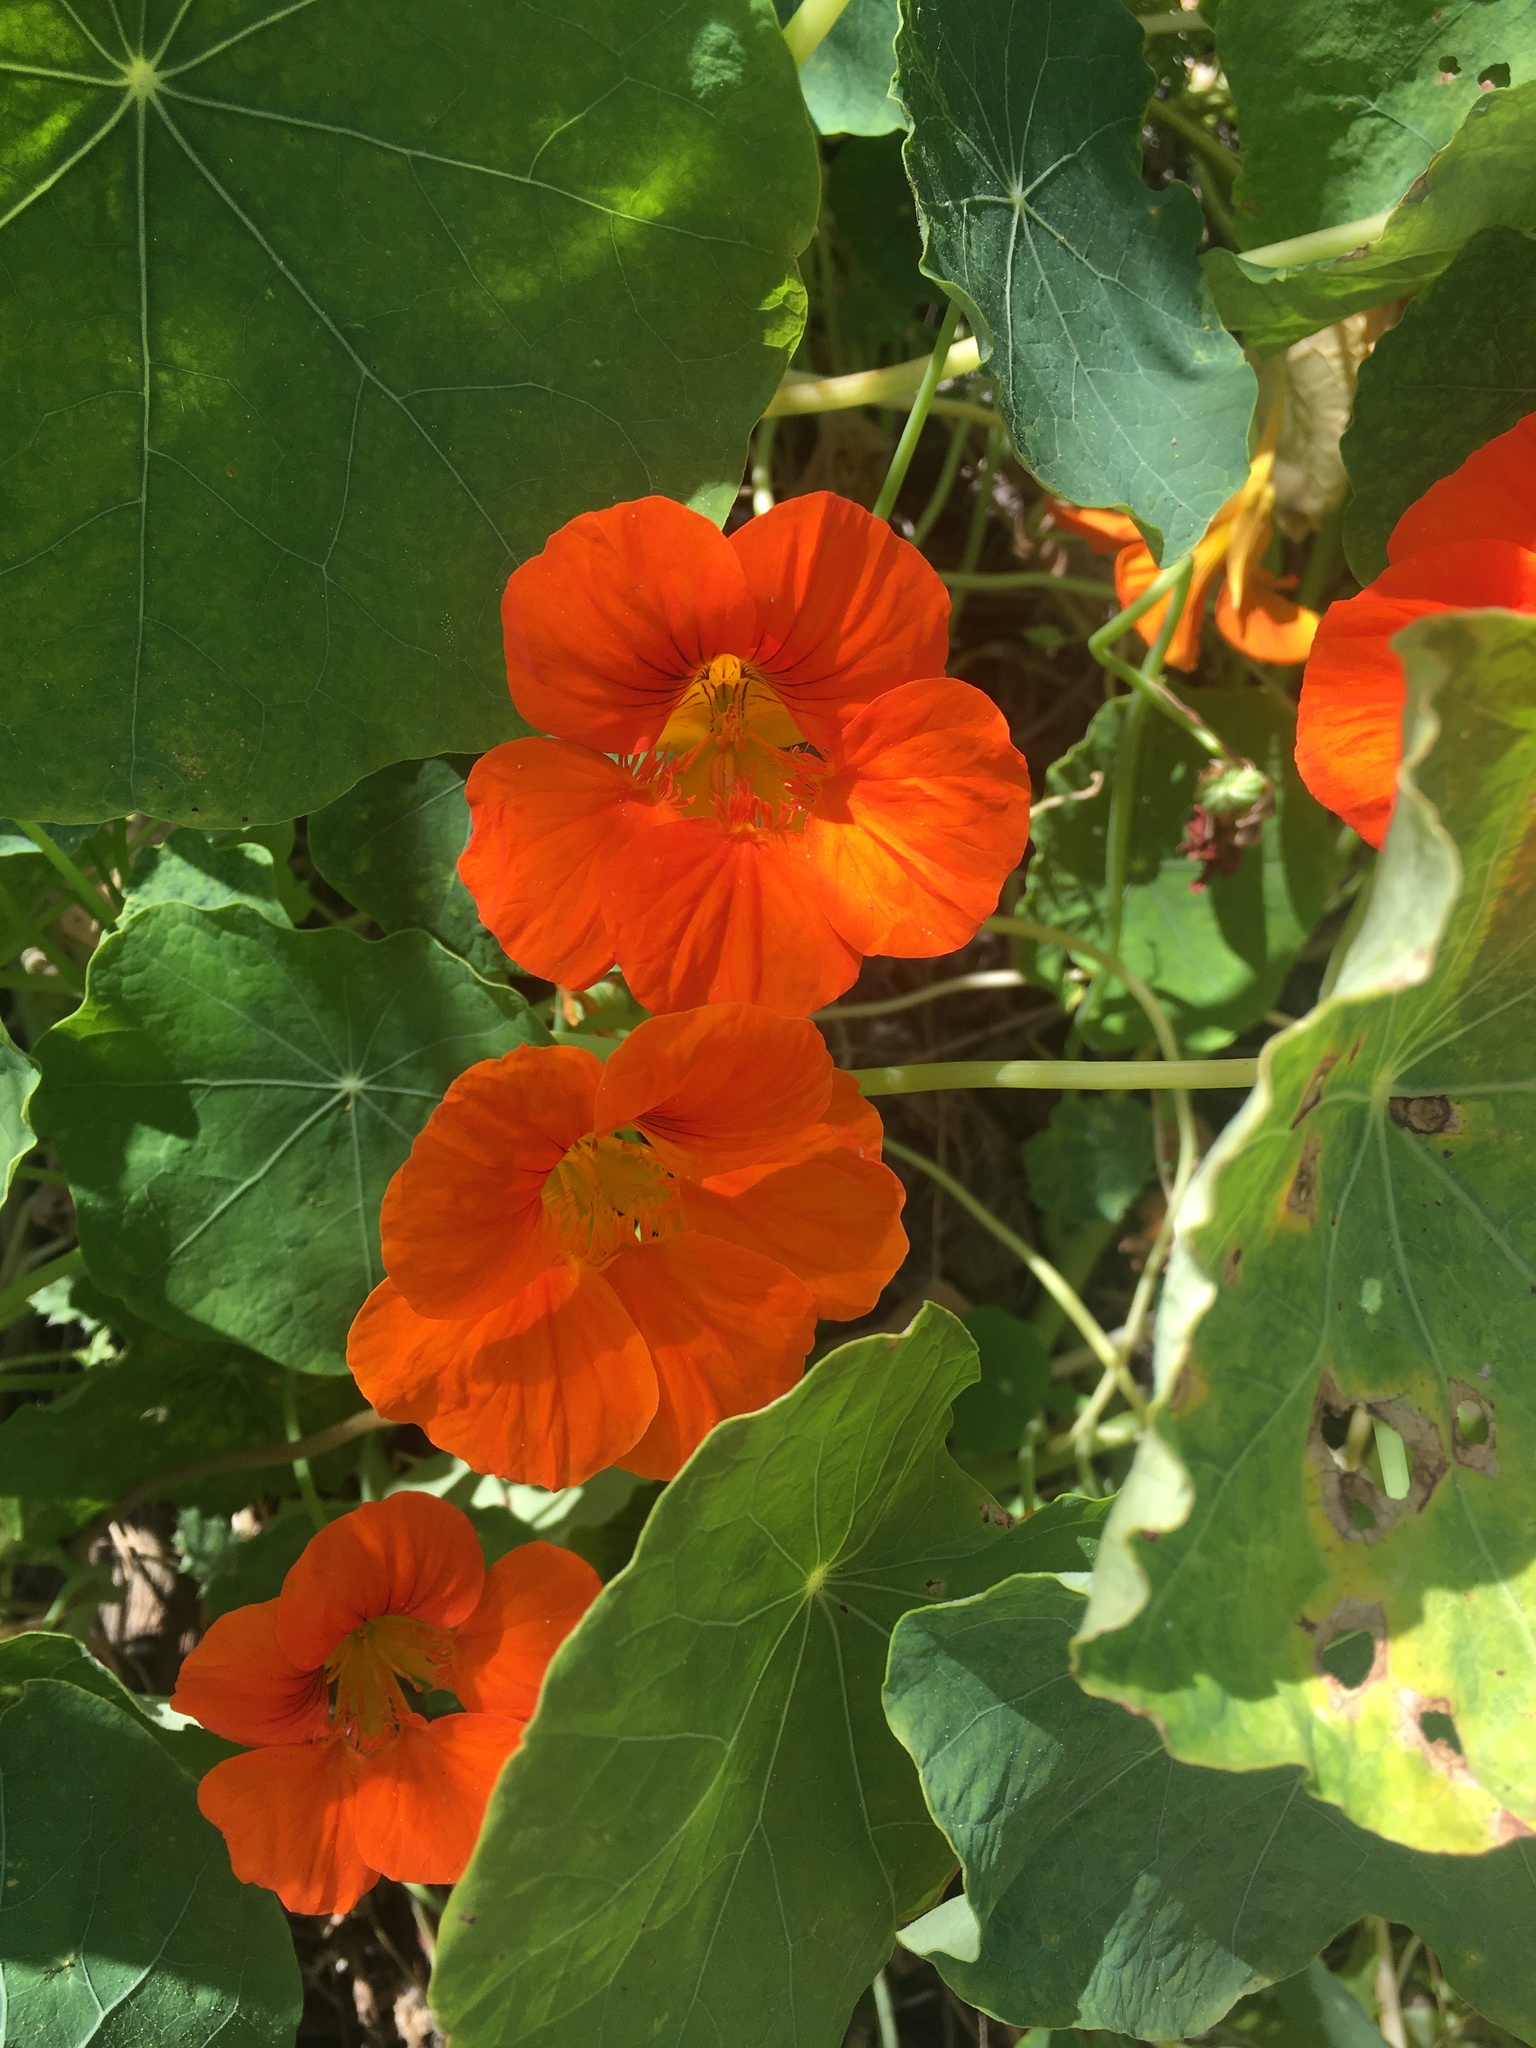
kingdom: Plantae
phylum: Tracheophyta
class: Magnoliopsida
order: Brassicales
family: Tropaeolaceae
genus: Tropaeolum
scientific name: Tropaeolum majus
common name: Nasturtium
